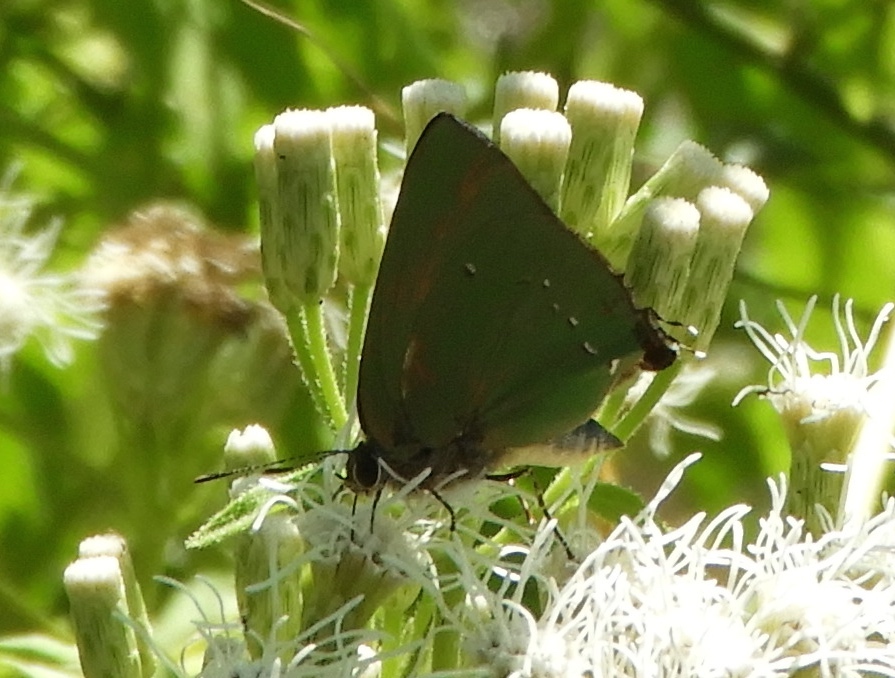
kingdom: Animalia
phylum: Arthropoda
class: Insecta
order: Lepidoptera
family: Lycaenidae
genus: Thecla
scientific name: Thecla herodotus
